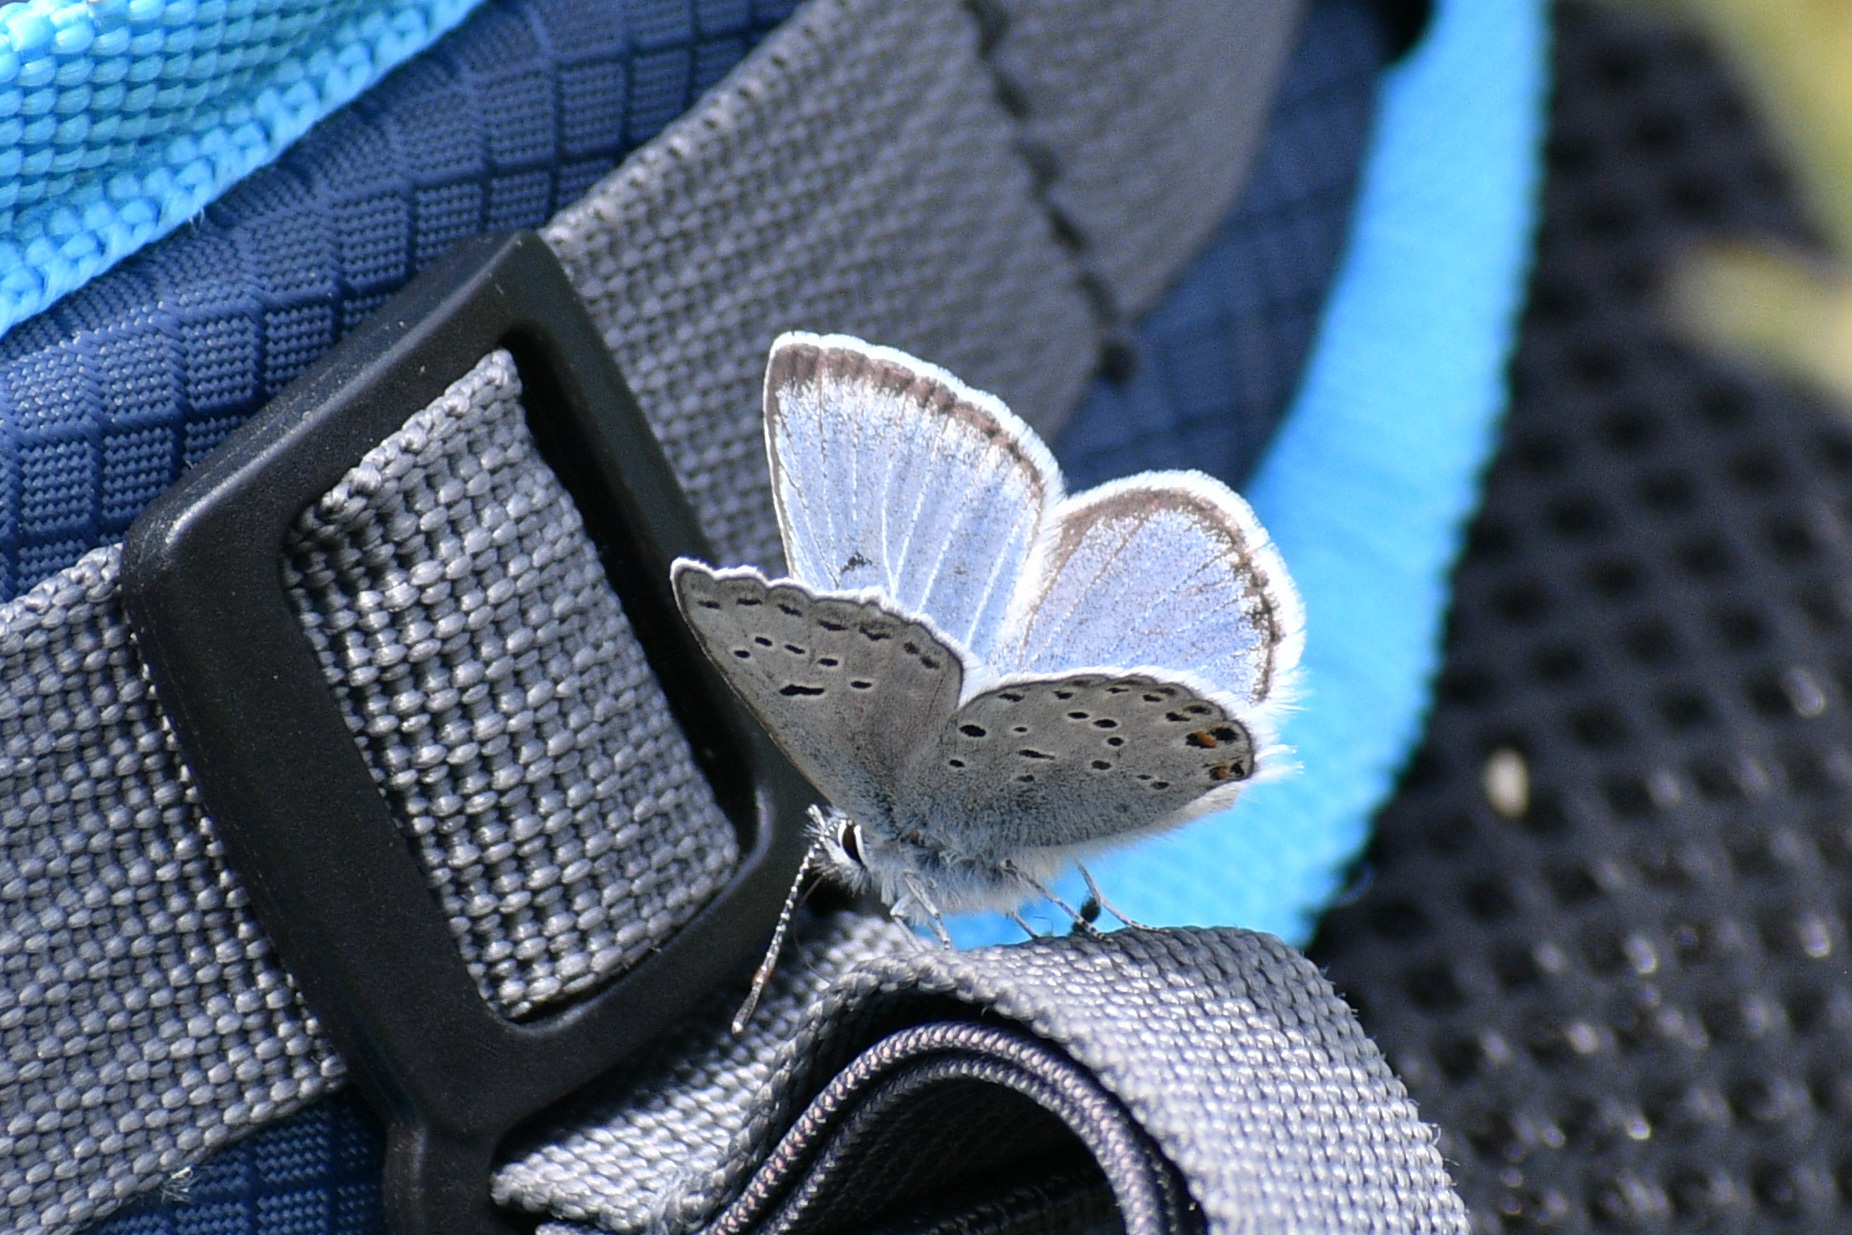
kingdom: Animalia
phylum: Arthropoda
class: Insecta
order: Lepidoptera
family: Lycaenidae
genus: Icaricia
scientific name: Icaricia saepiolus
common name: Greenish blue
